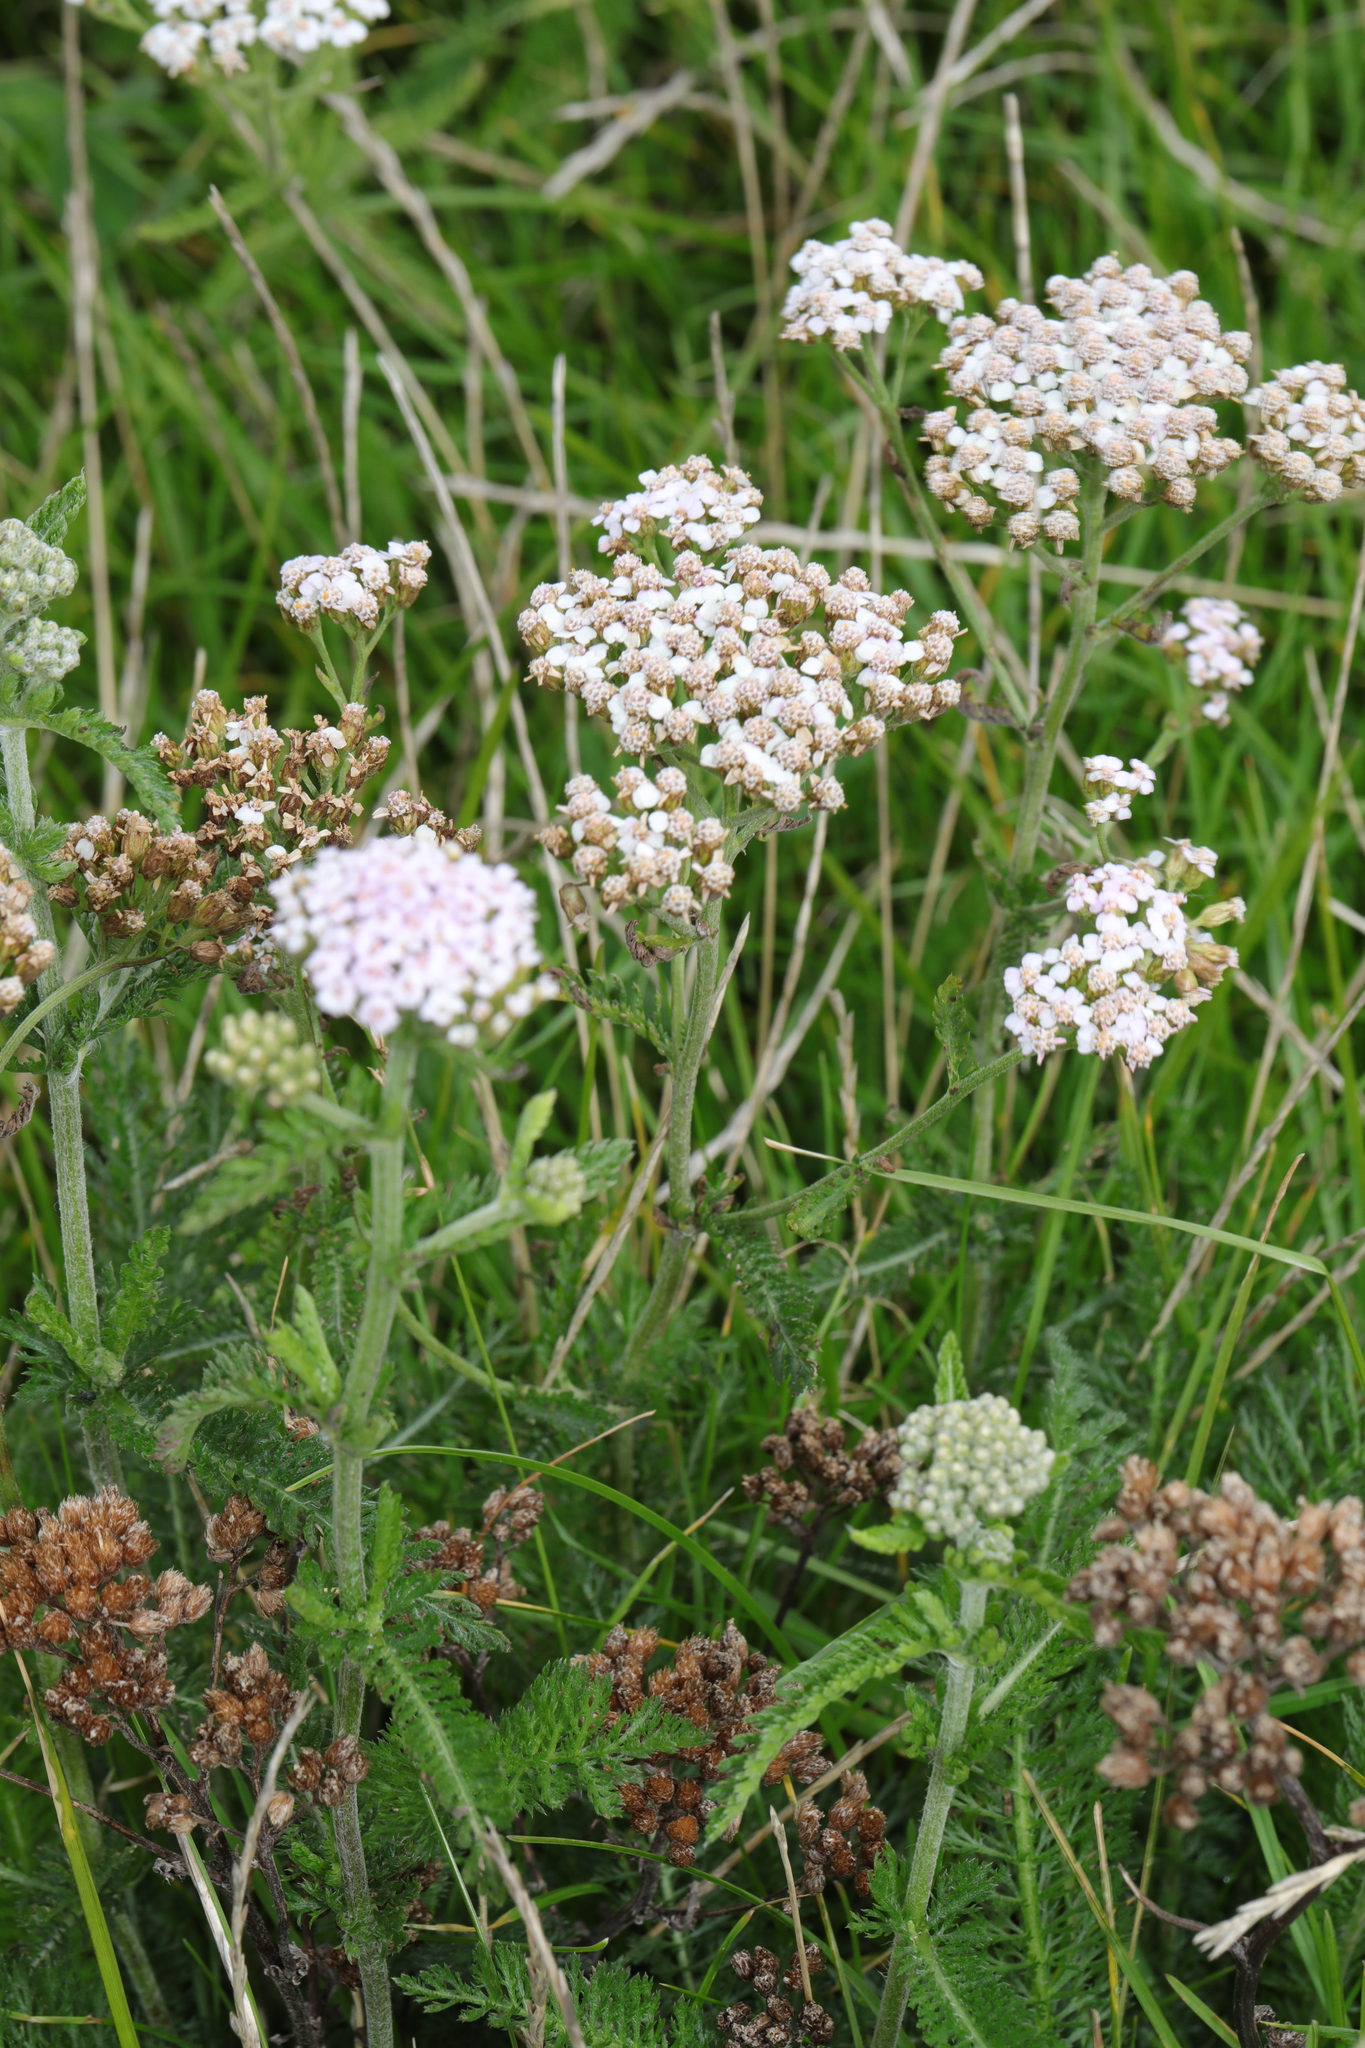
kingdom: Plantae
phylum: Tracheophyta
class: Magnoliopsida
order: Asterales
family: Asteraceae
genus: Achillea
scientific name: Achillea millefolium
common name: Yarrow
